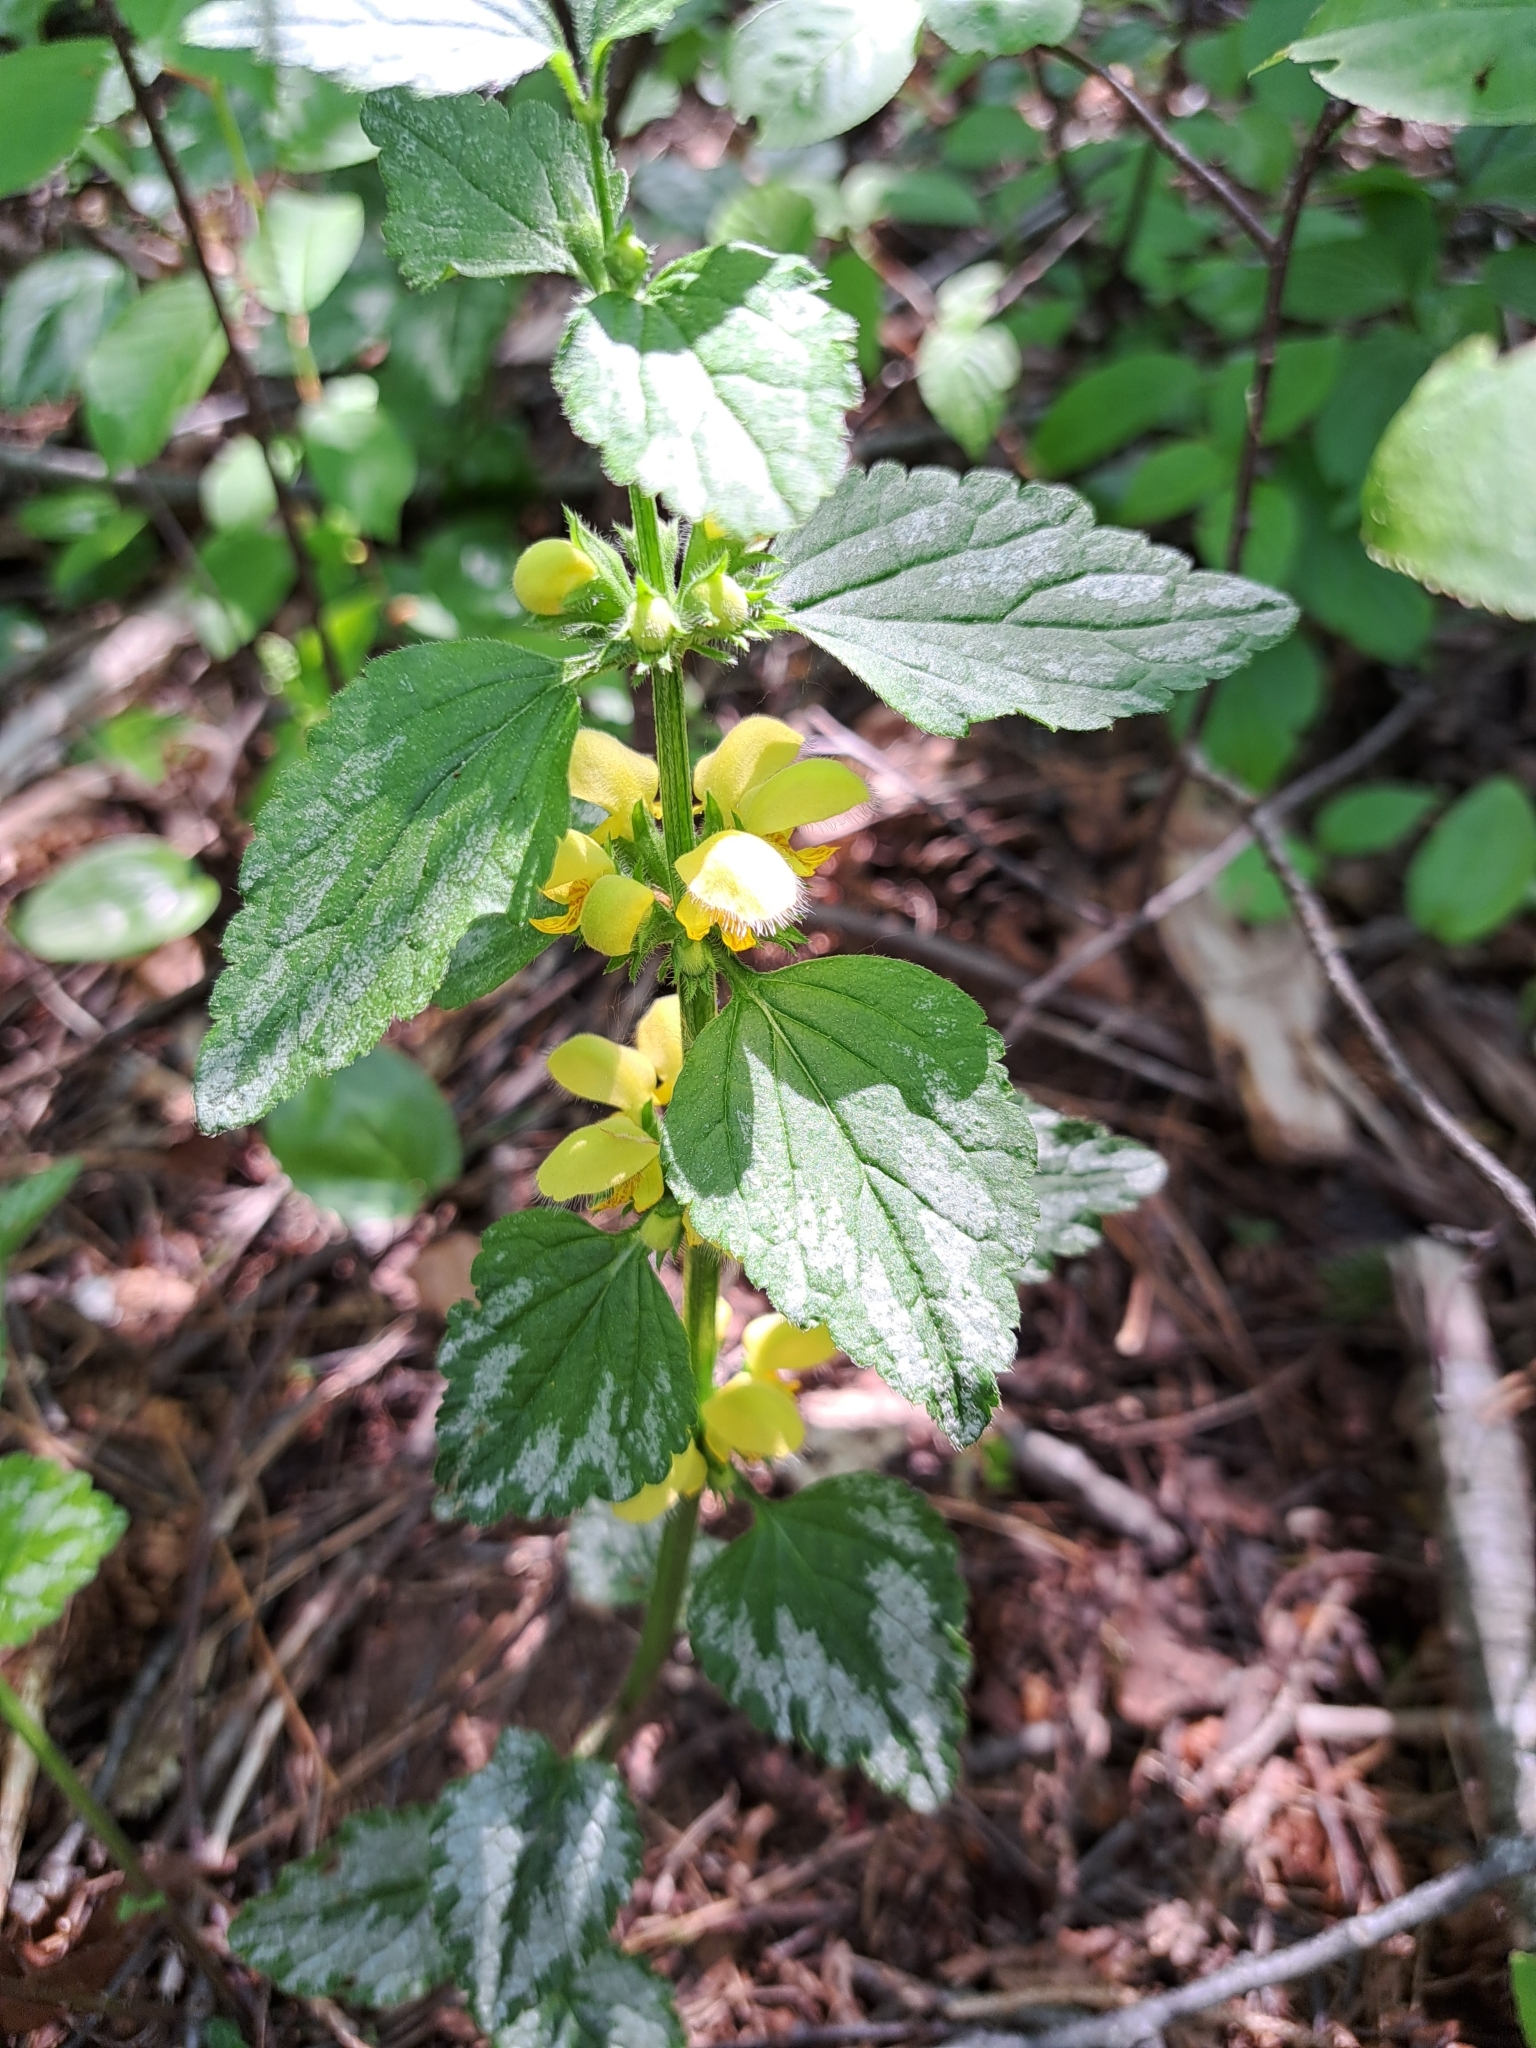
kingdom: Plantae
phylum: Tracheophyta
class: Magnoliopsida
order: Lamiales
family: Lamiaceae
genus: Lamium
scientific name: Lamium galeobdolon
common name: Yellow archangel
